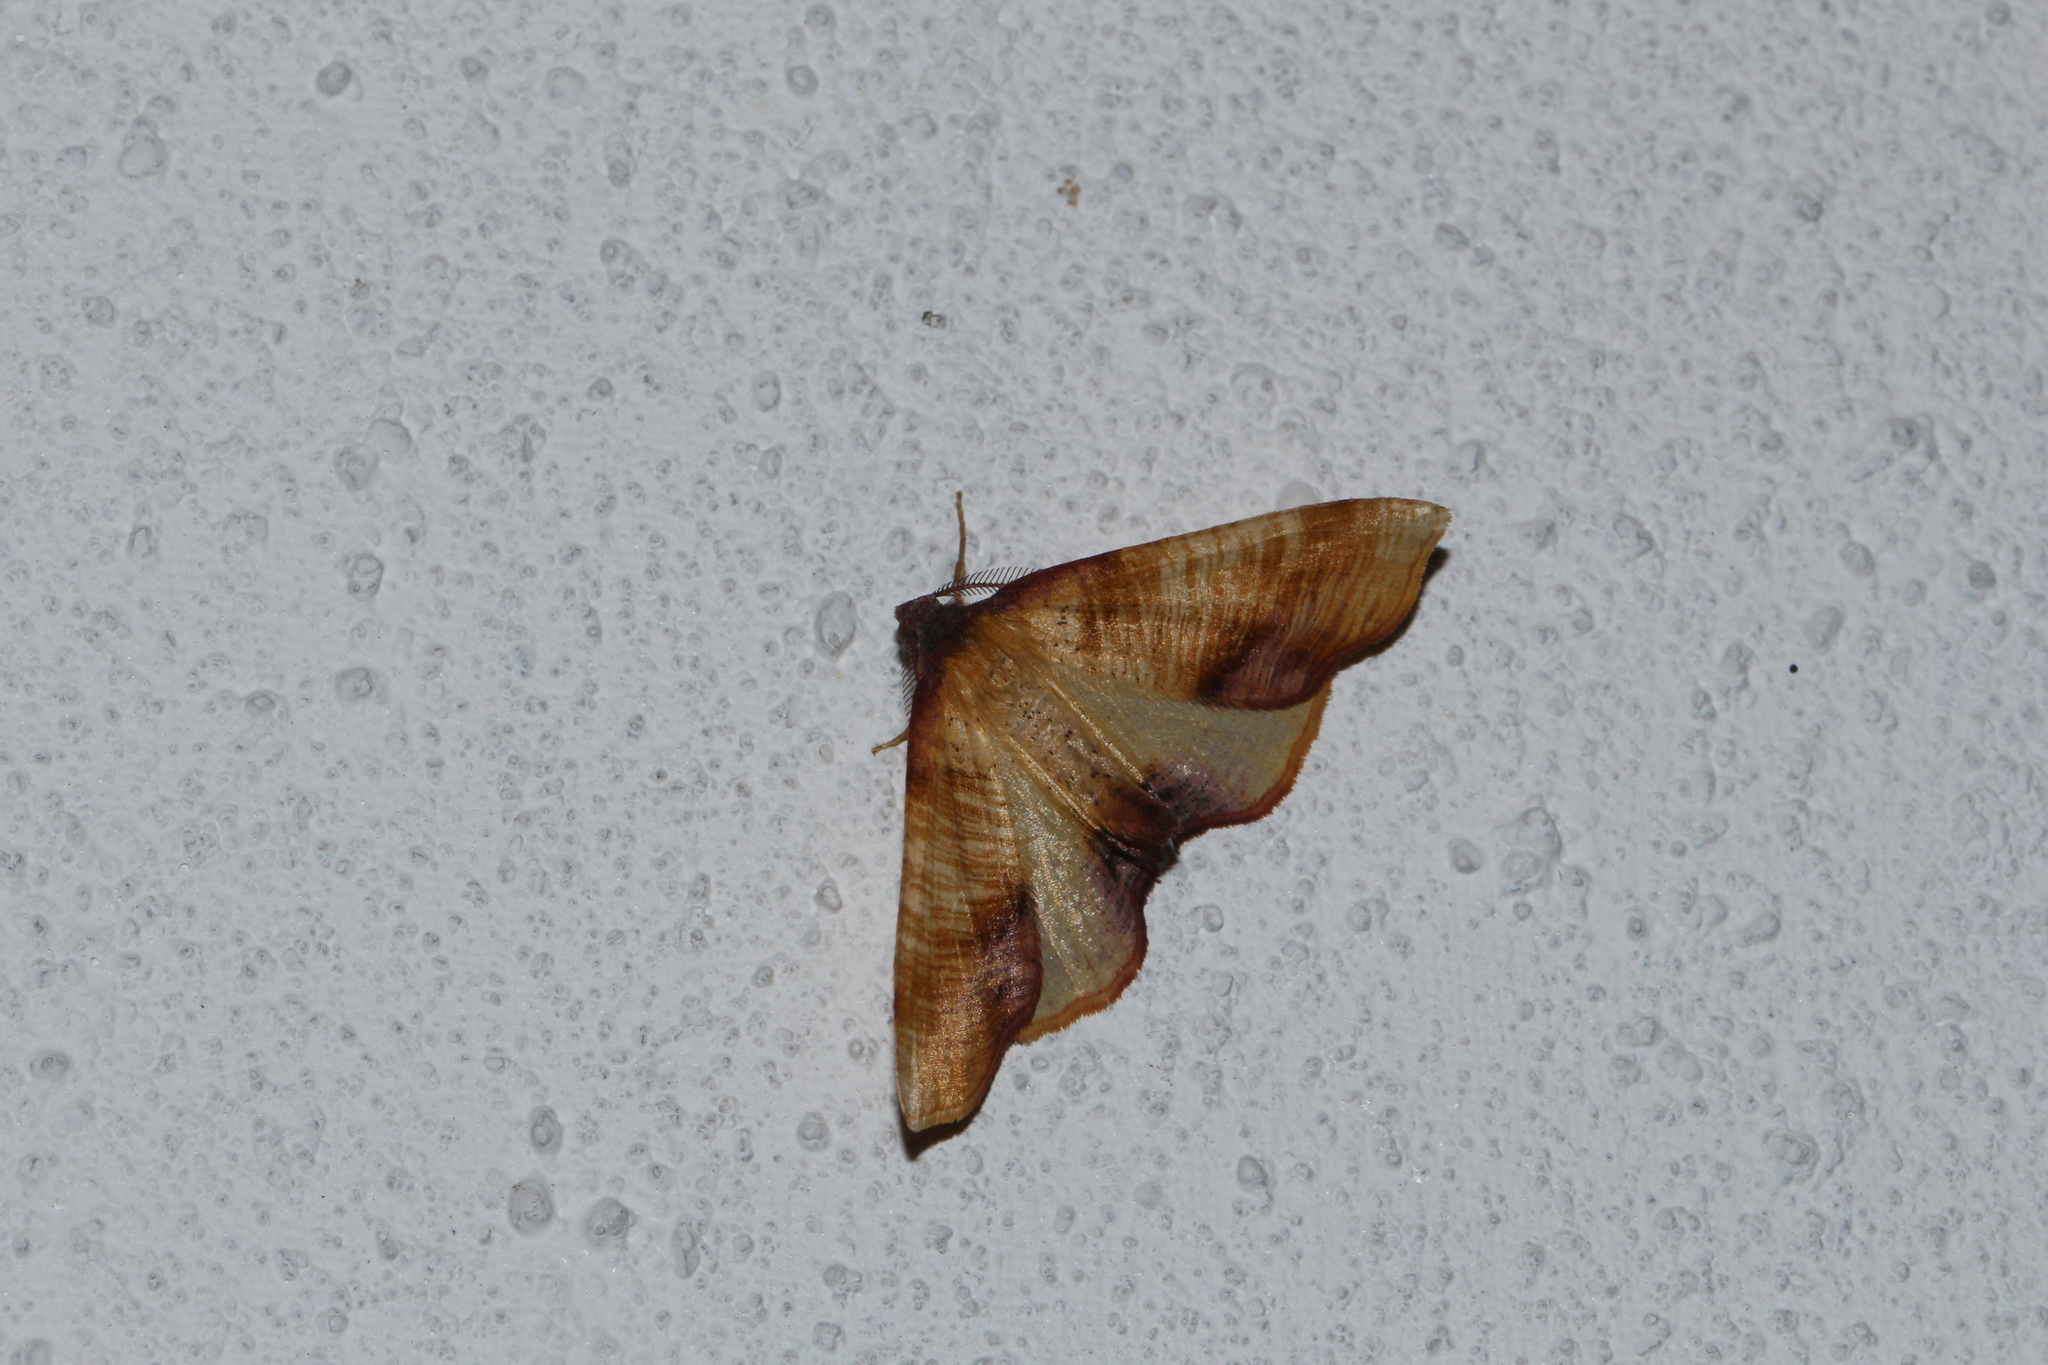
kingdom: Animalia
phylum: Arthropoda
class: Insecta
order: Lepidoptera
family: Geometridae
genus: Plagodis
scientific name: Plagodis dolabraria
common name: Scorched wing
